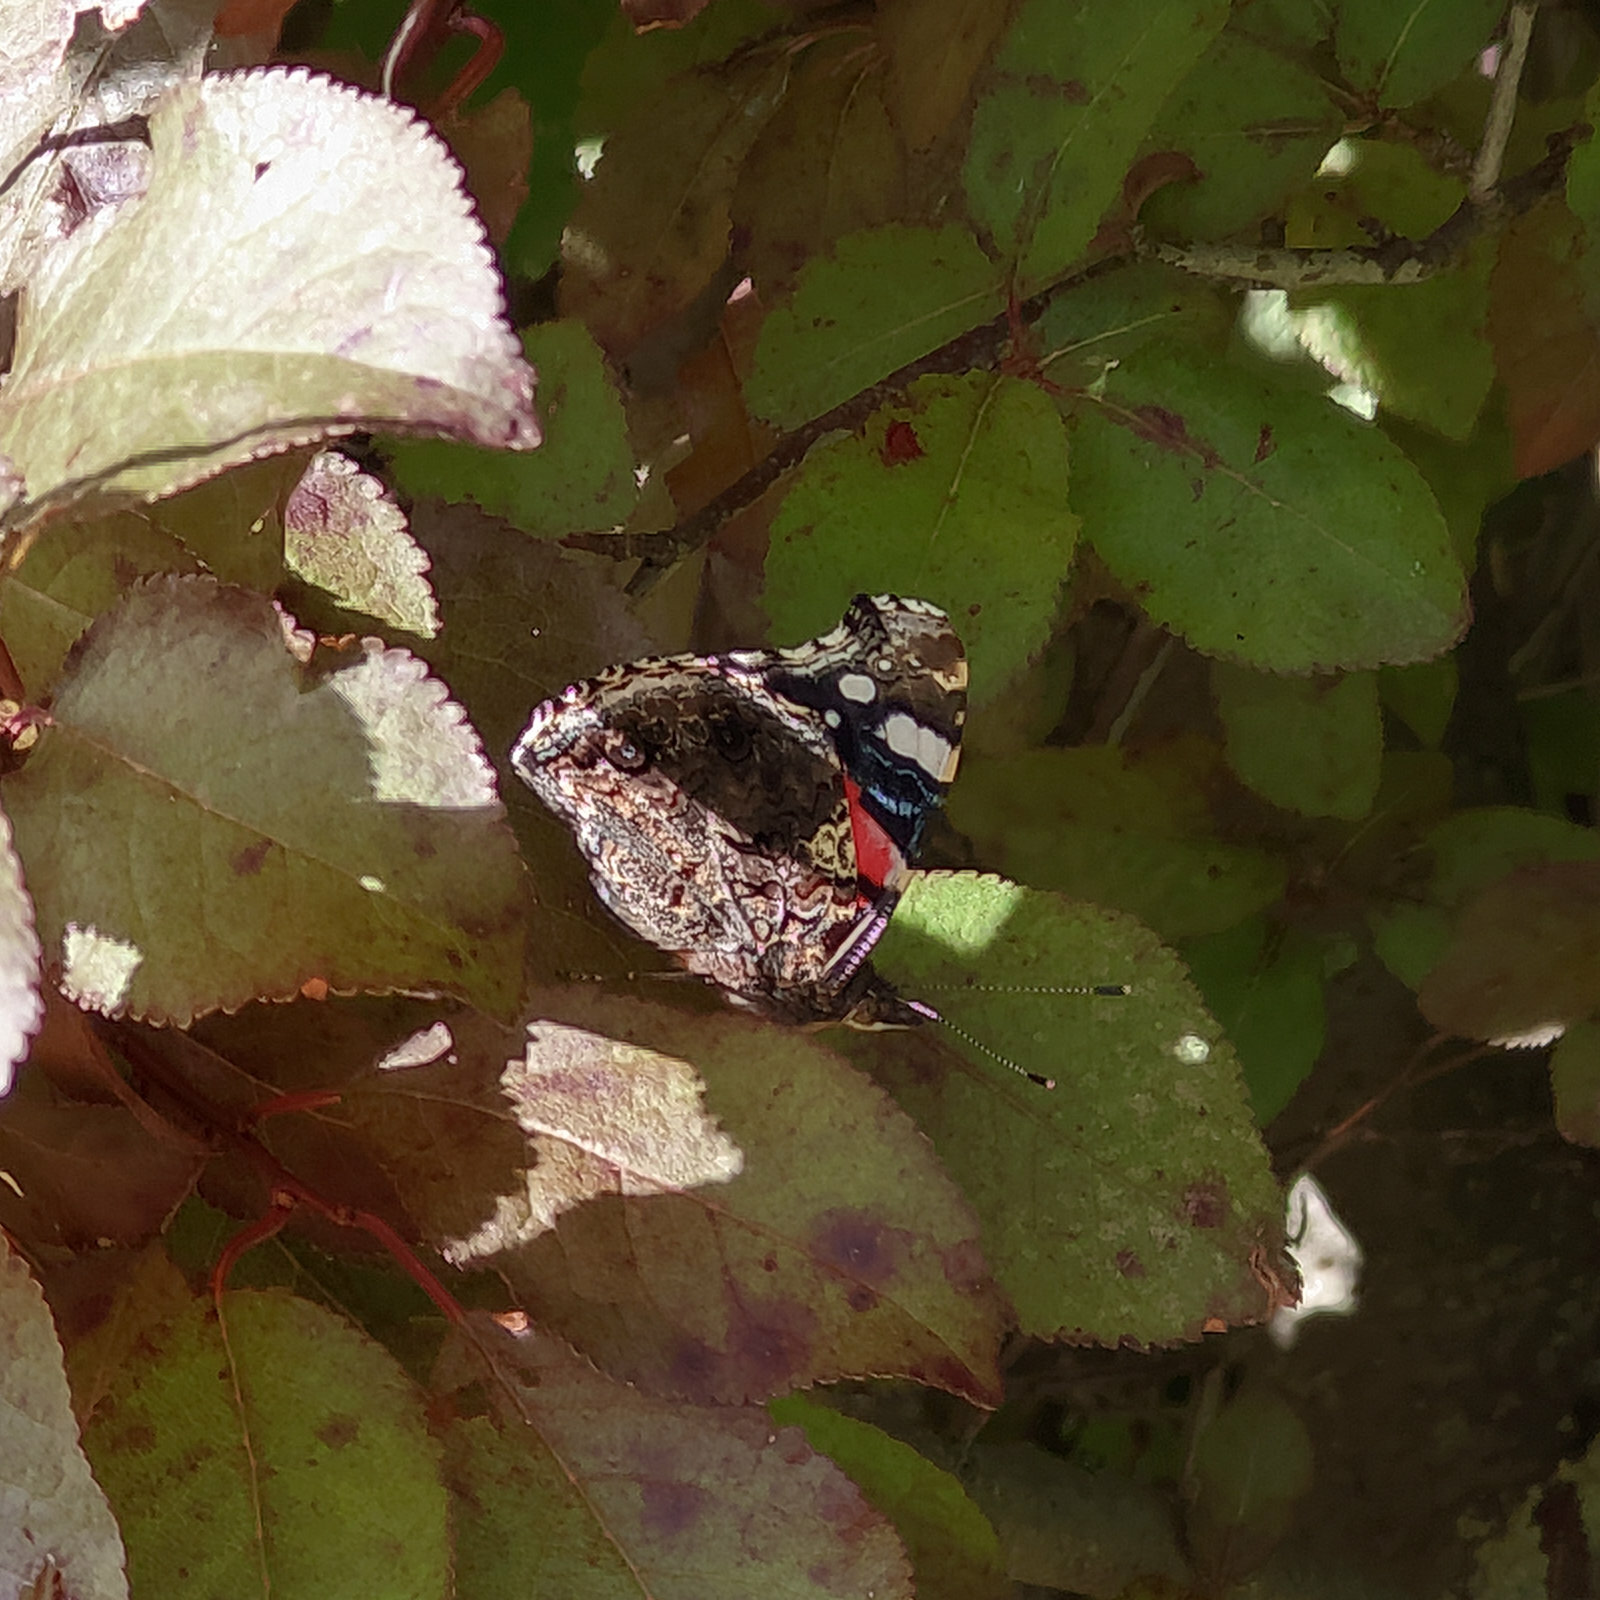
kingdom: Animalia
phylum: Arthropoda
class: Insecta
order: Lepidoptera
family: Nymphalidae
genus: Vanessa
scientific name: Vanessa atalanta
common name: Red admiral
